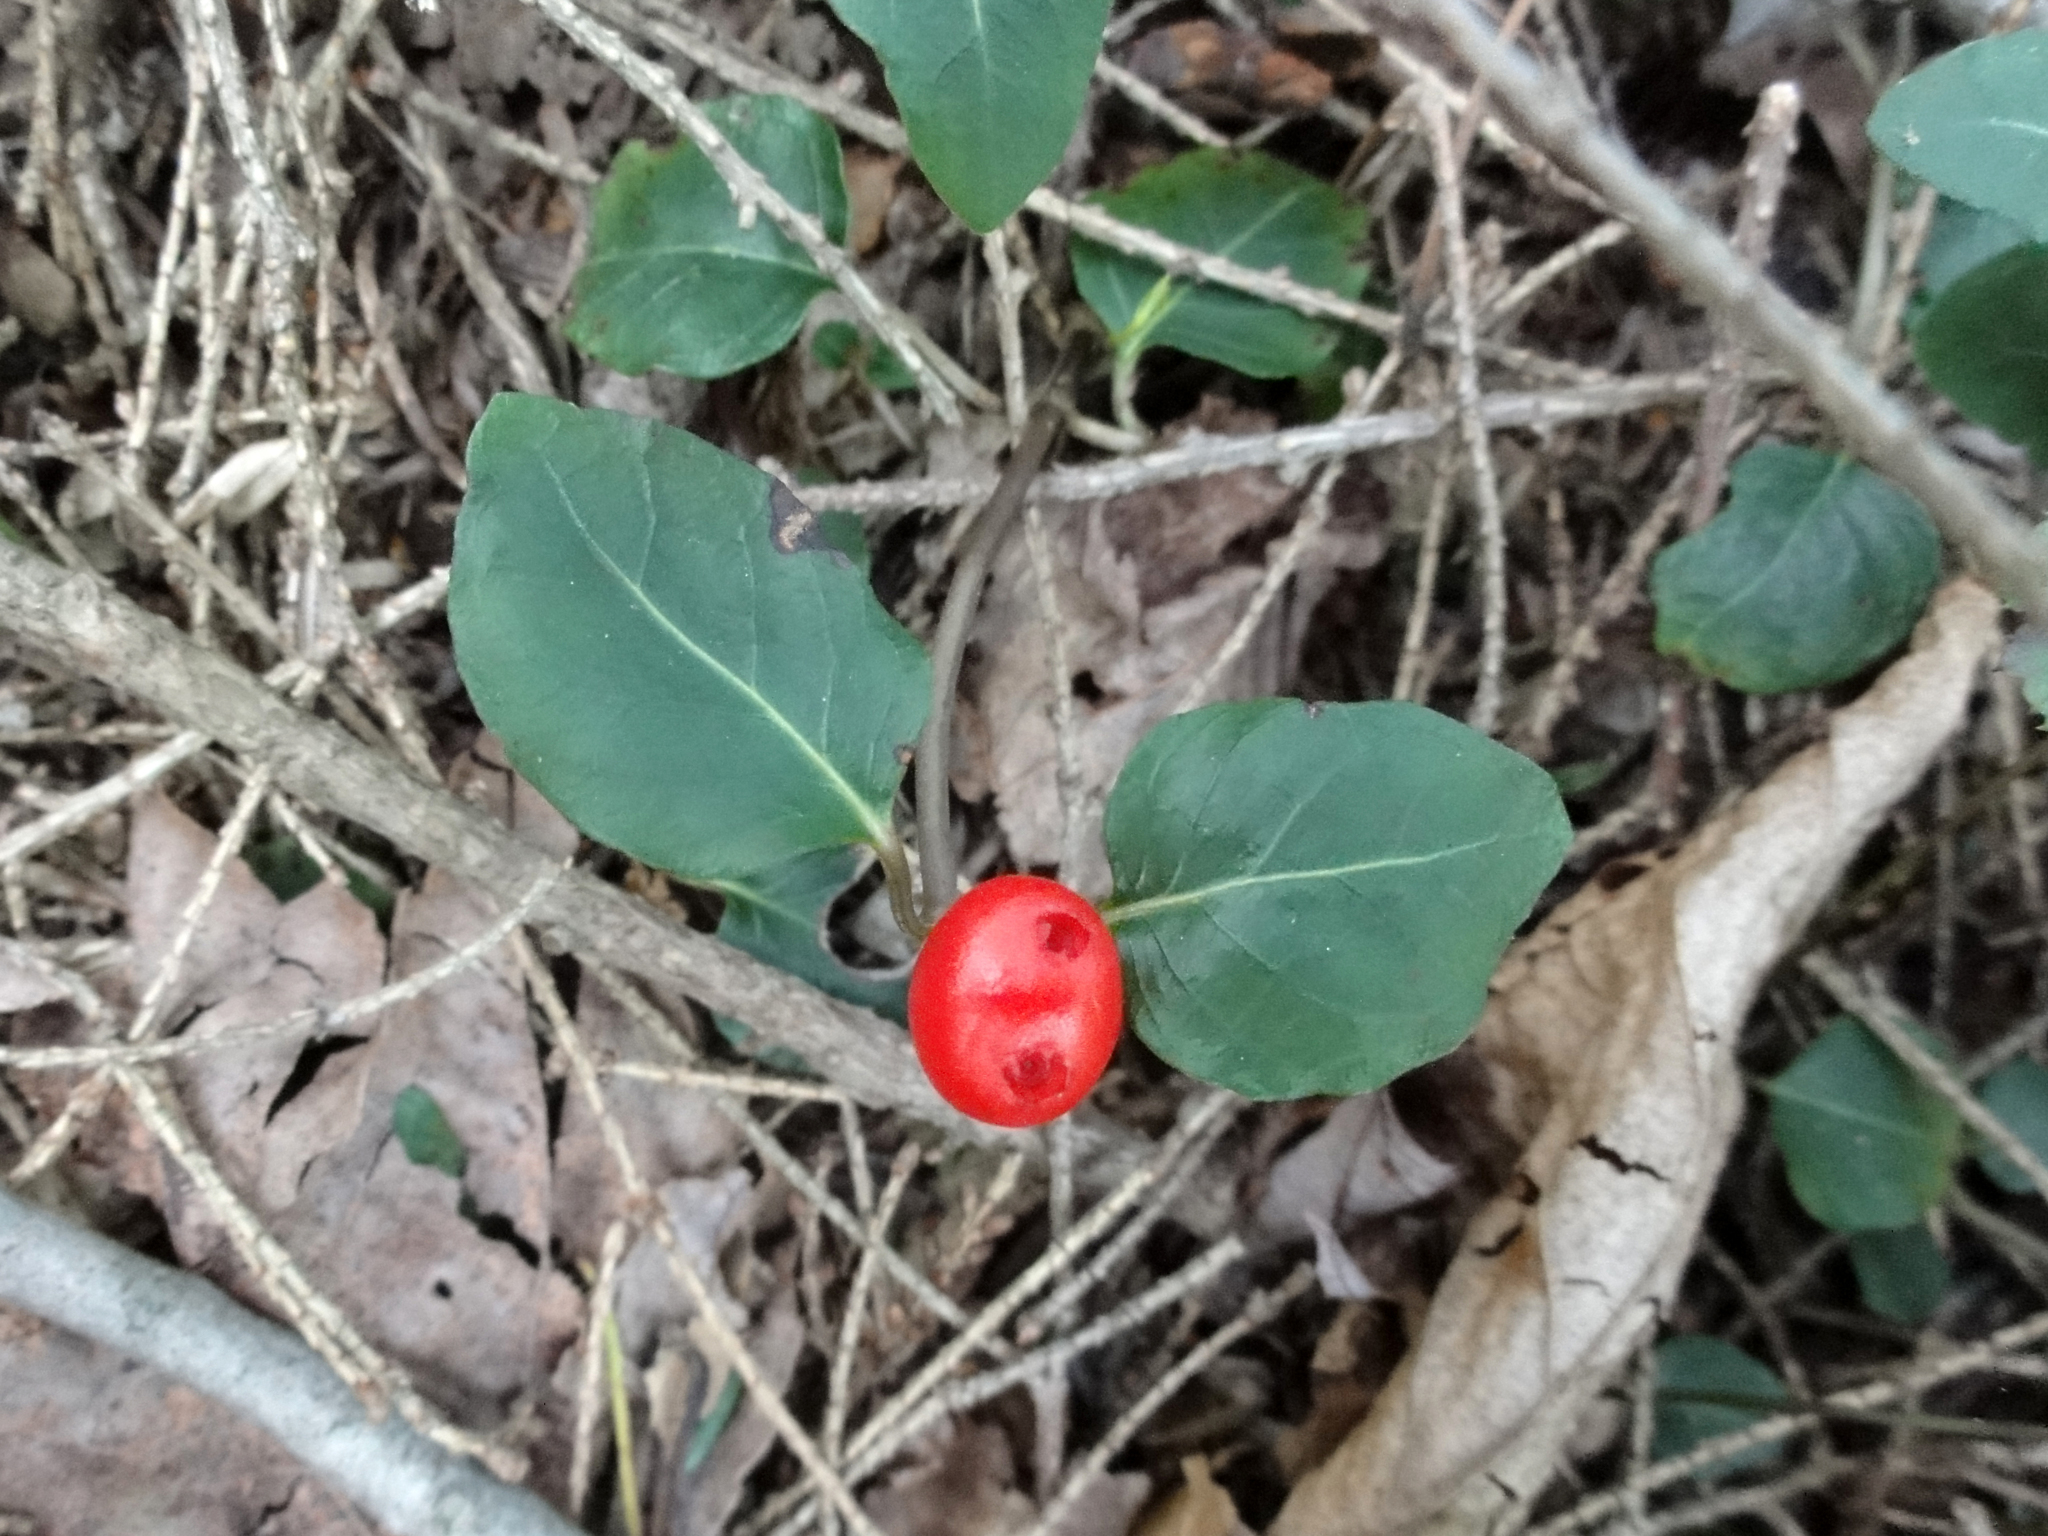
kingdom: Plantae
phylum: Tracheophyta
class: Magnoliopsida
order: Gentianales
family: Rubiaceae
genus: Mitchella
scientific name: Mitchella repens
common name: Partridge-berry
